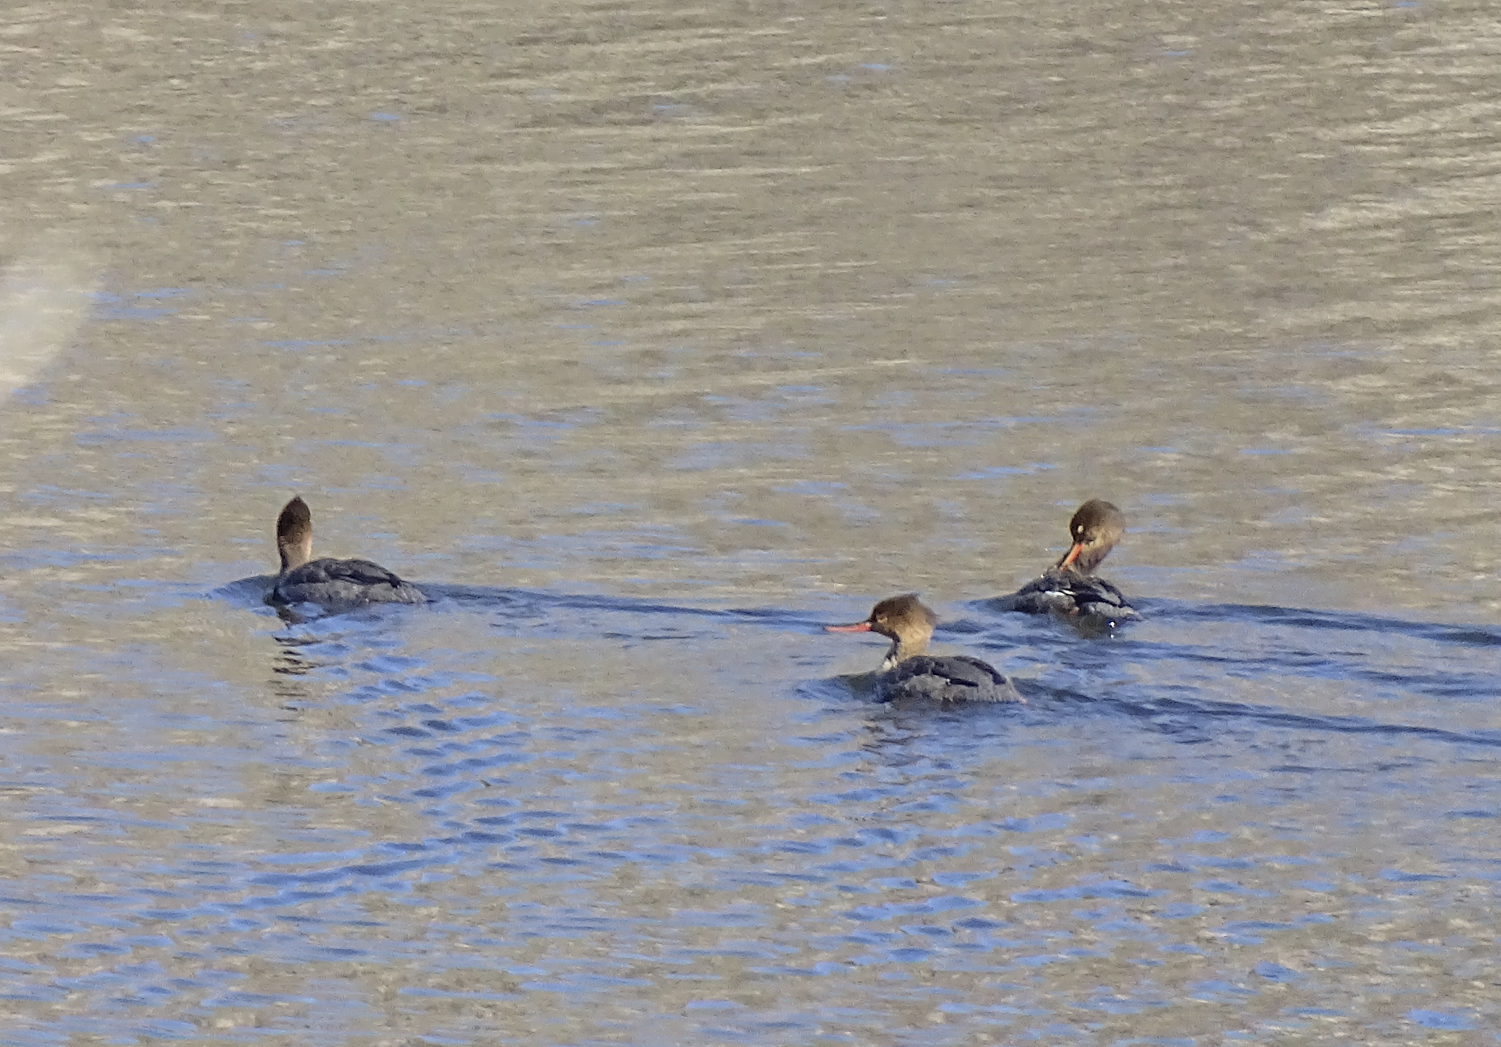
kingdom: Animalia
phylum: Chordata
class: Aves
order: Anseriformes
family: Anatidae
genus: Mergus
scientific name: Mergus serrator
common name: Red-breasted merganser
